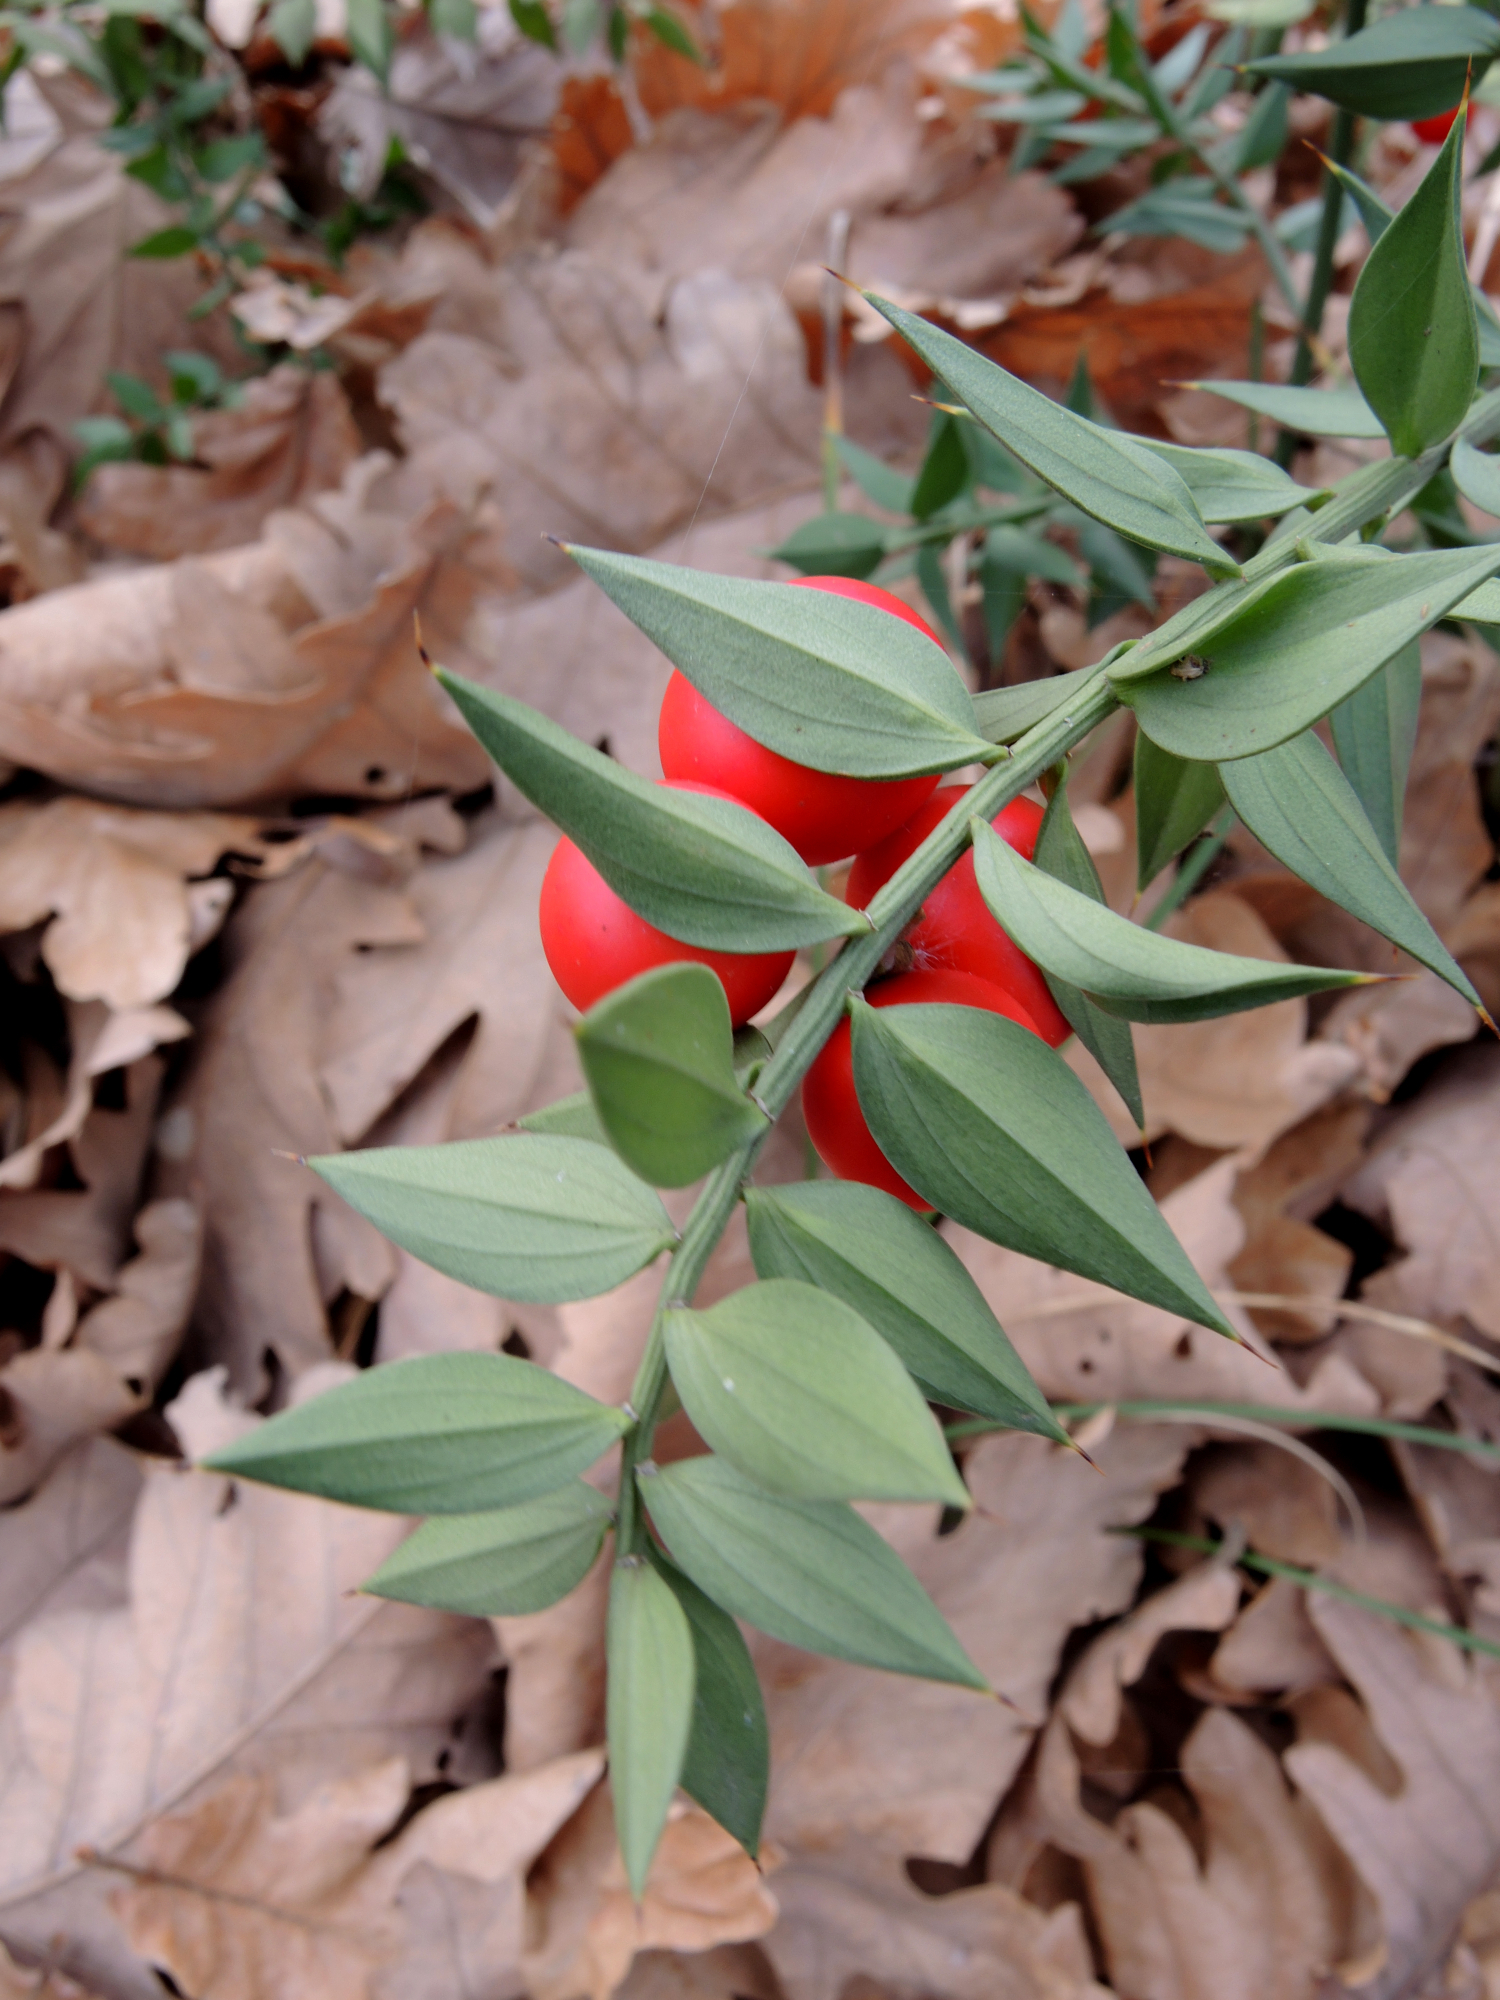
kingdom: Plantae
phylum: Tracheophyta
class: Liliopsida
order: Asparagales
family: Asparagaceae
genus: Ruscus
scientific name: Ruscus aculeatus
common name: Butcher's-broom
